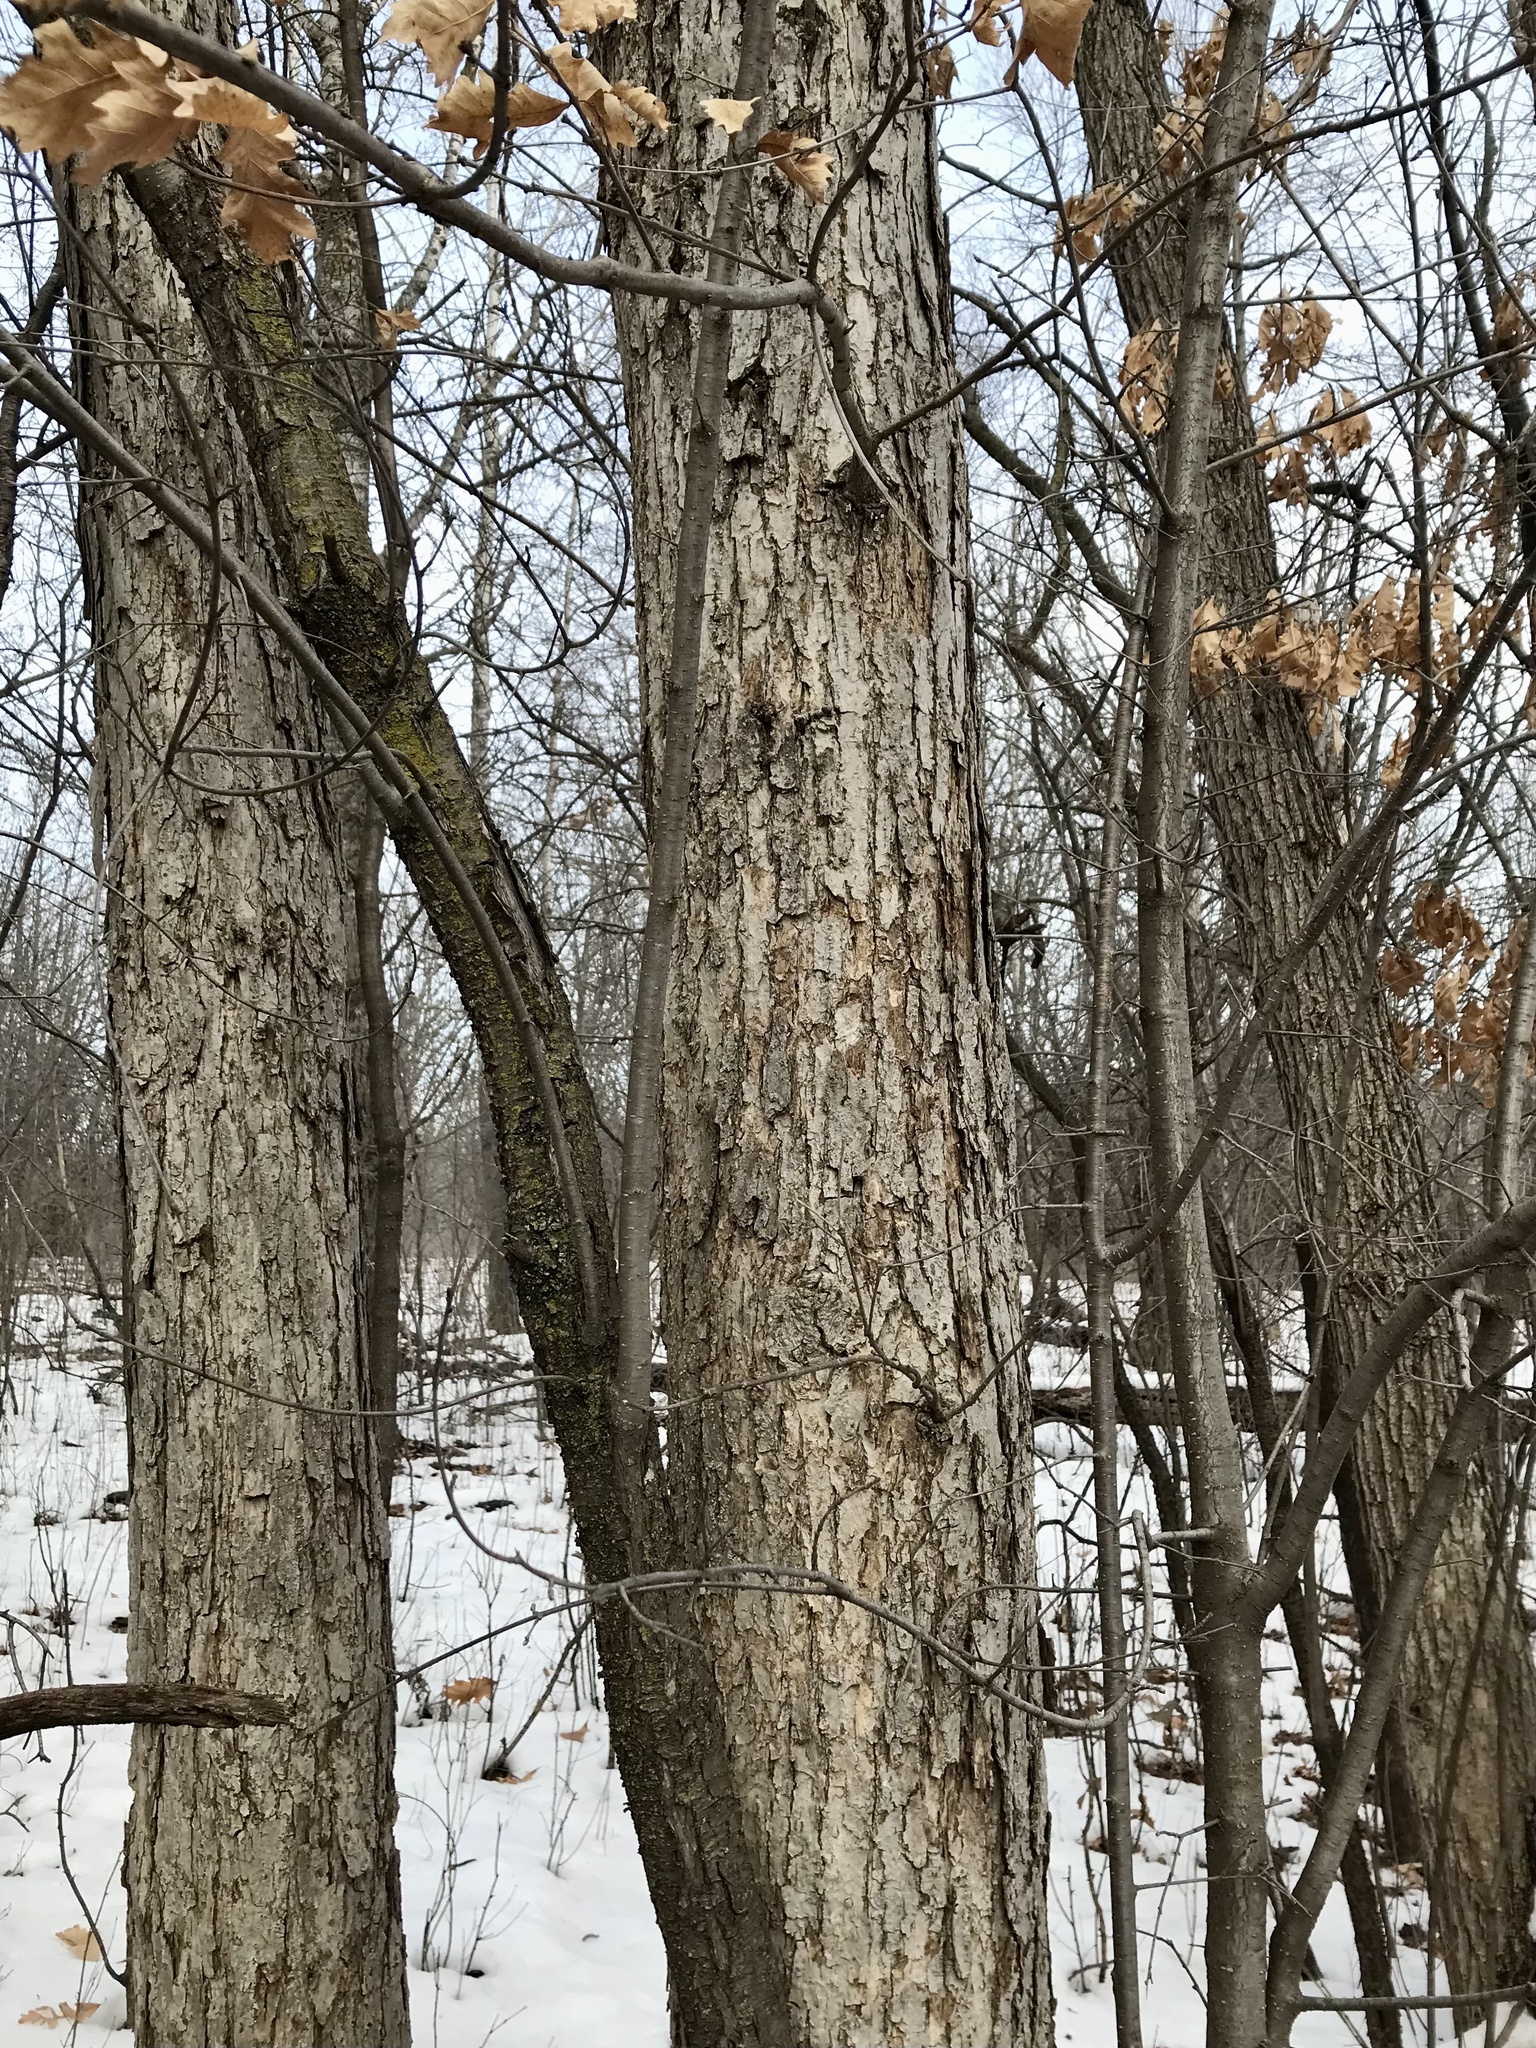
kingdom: Plantae
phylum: Tracheophyta
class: Magnoliopsida
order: Fagales
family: Fagaceae
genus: Quercus
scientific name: Quercus bebbiana
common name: Bebb's oak
